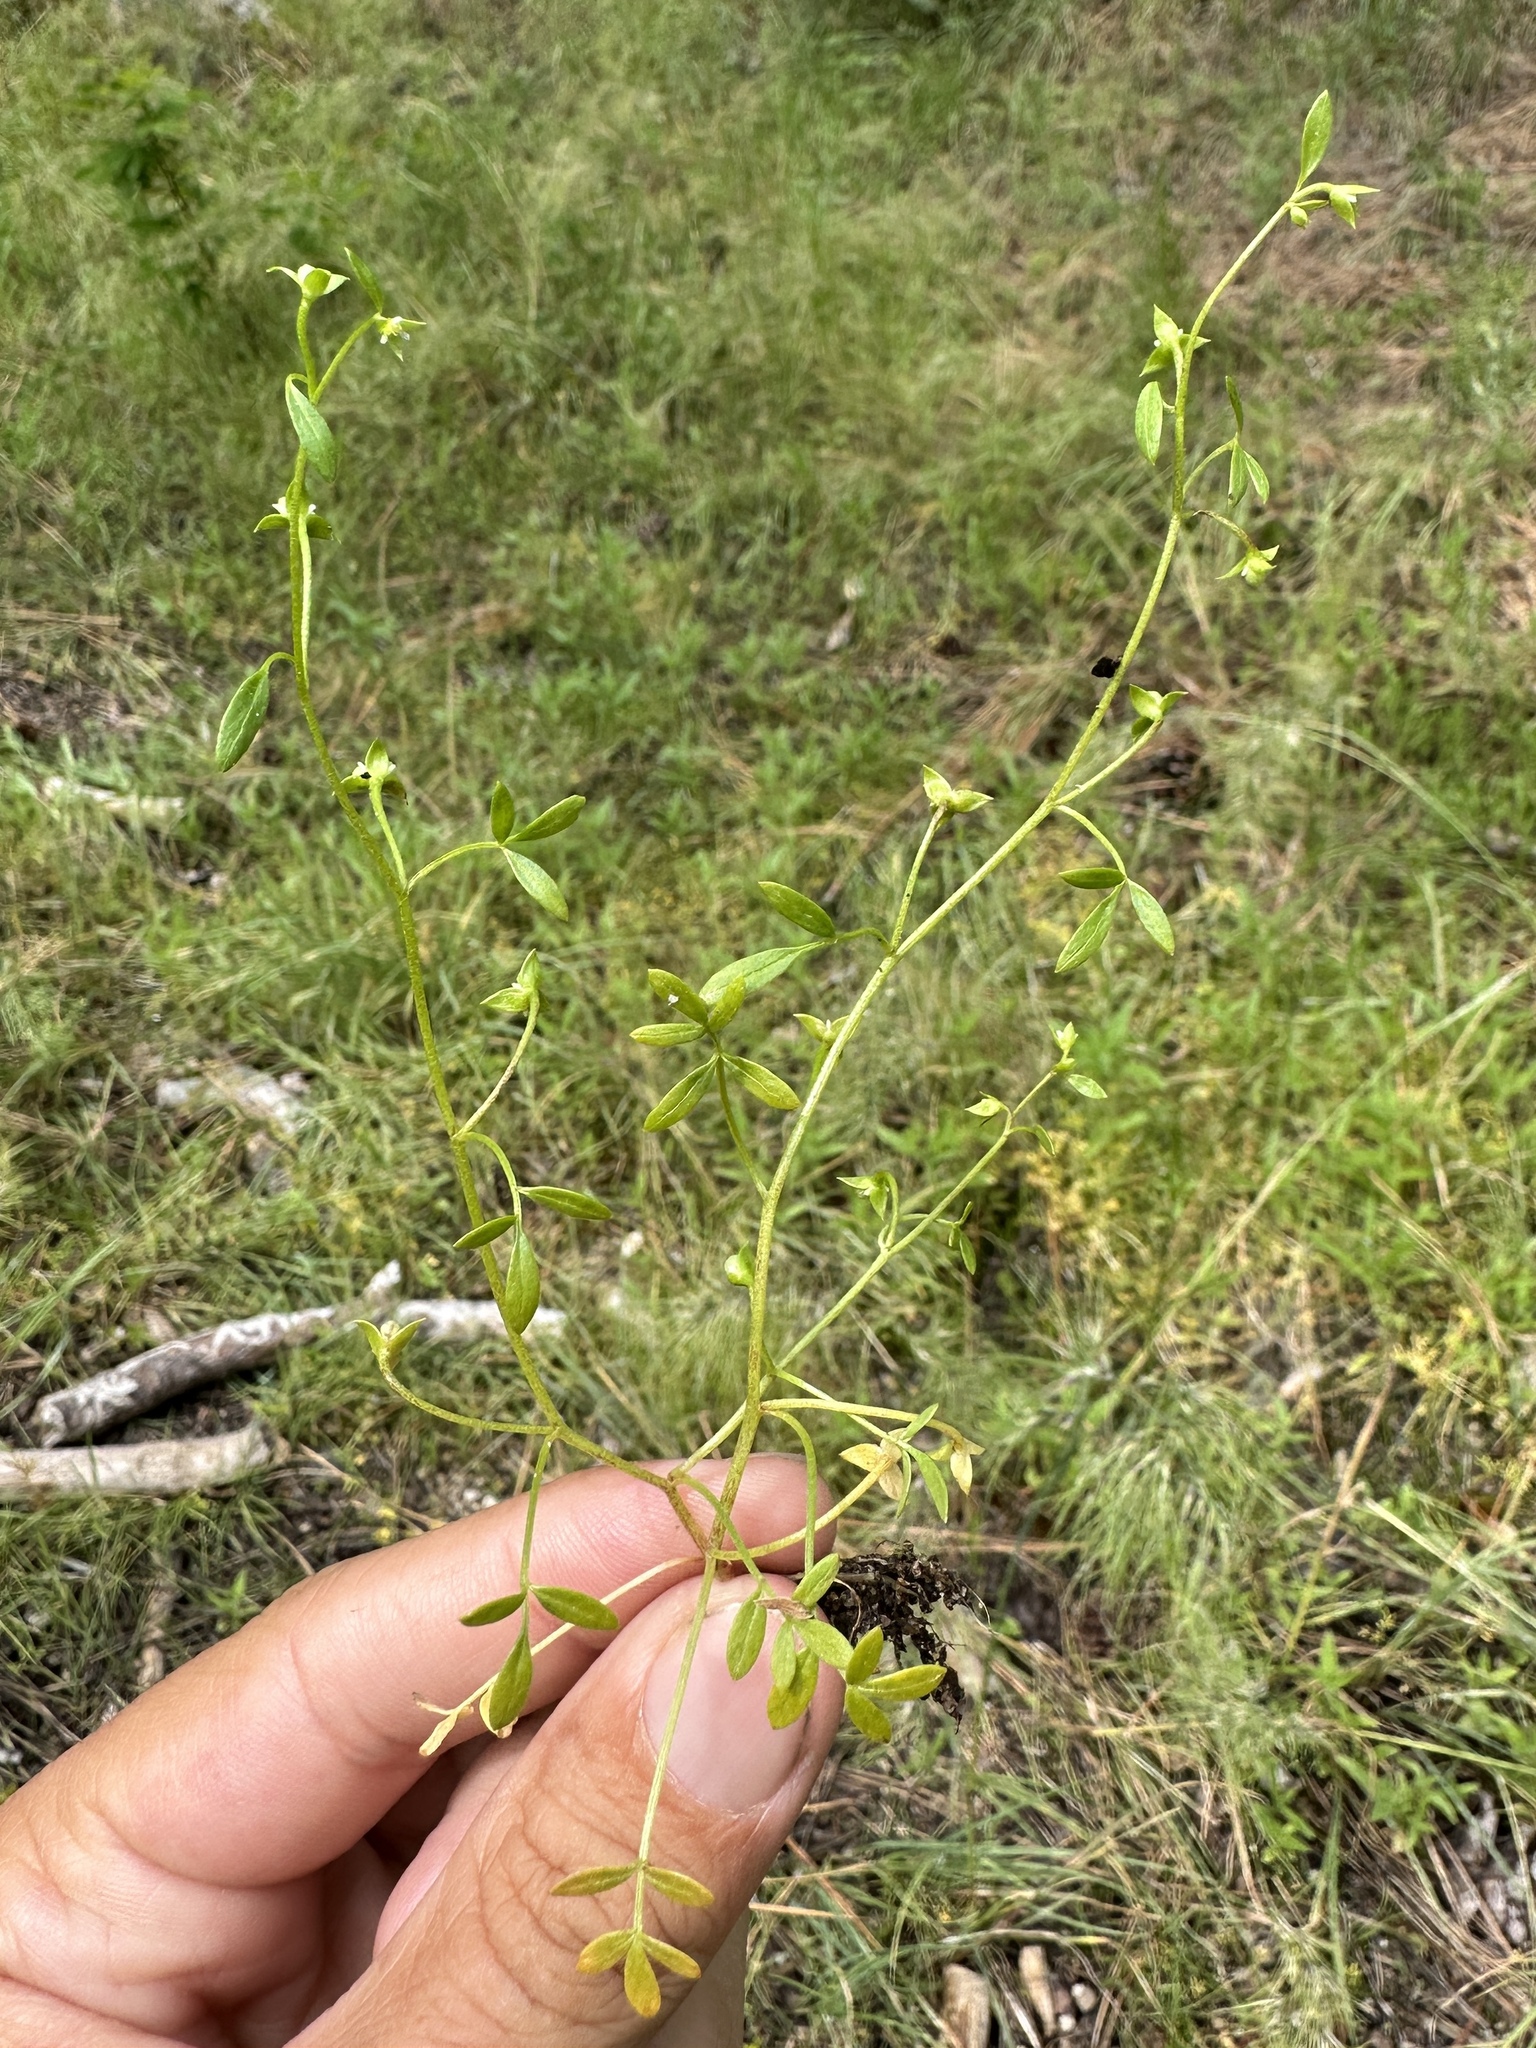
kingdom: Plantae
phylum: Tracheophyta
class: Magnoliopsida
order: Brassicales
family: Limnanthaceae
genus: Floerkea
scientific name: Floerkea proserpinacoides
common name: False mermaid
